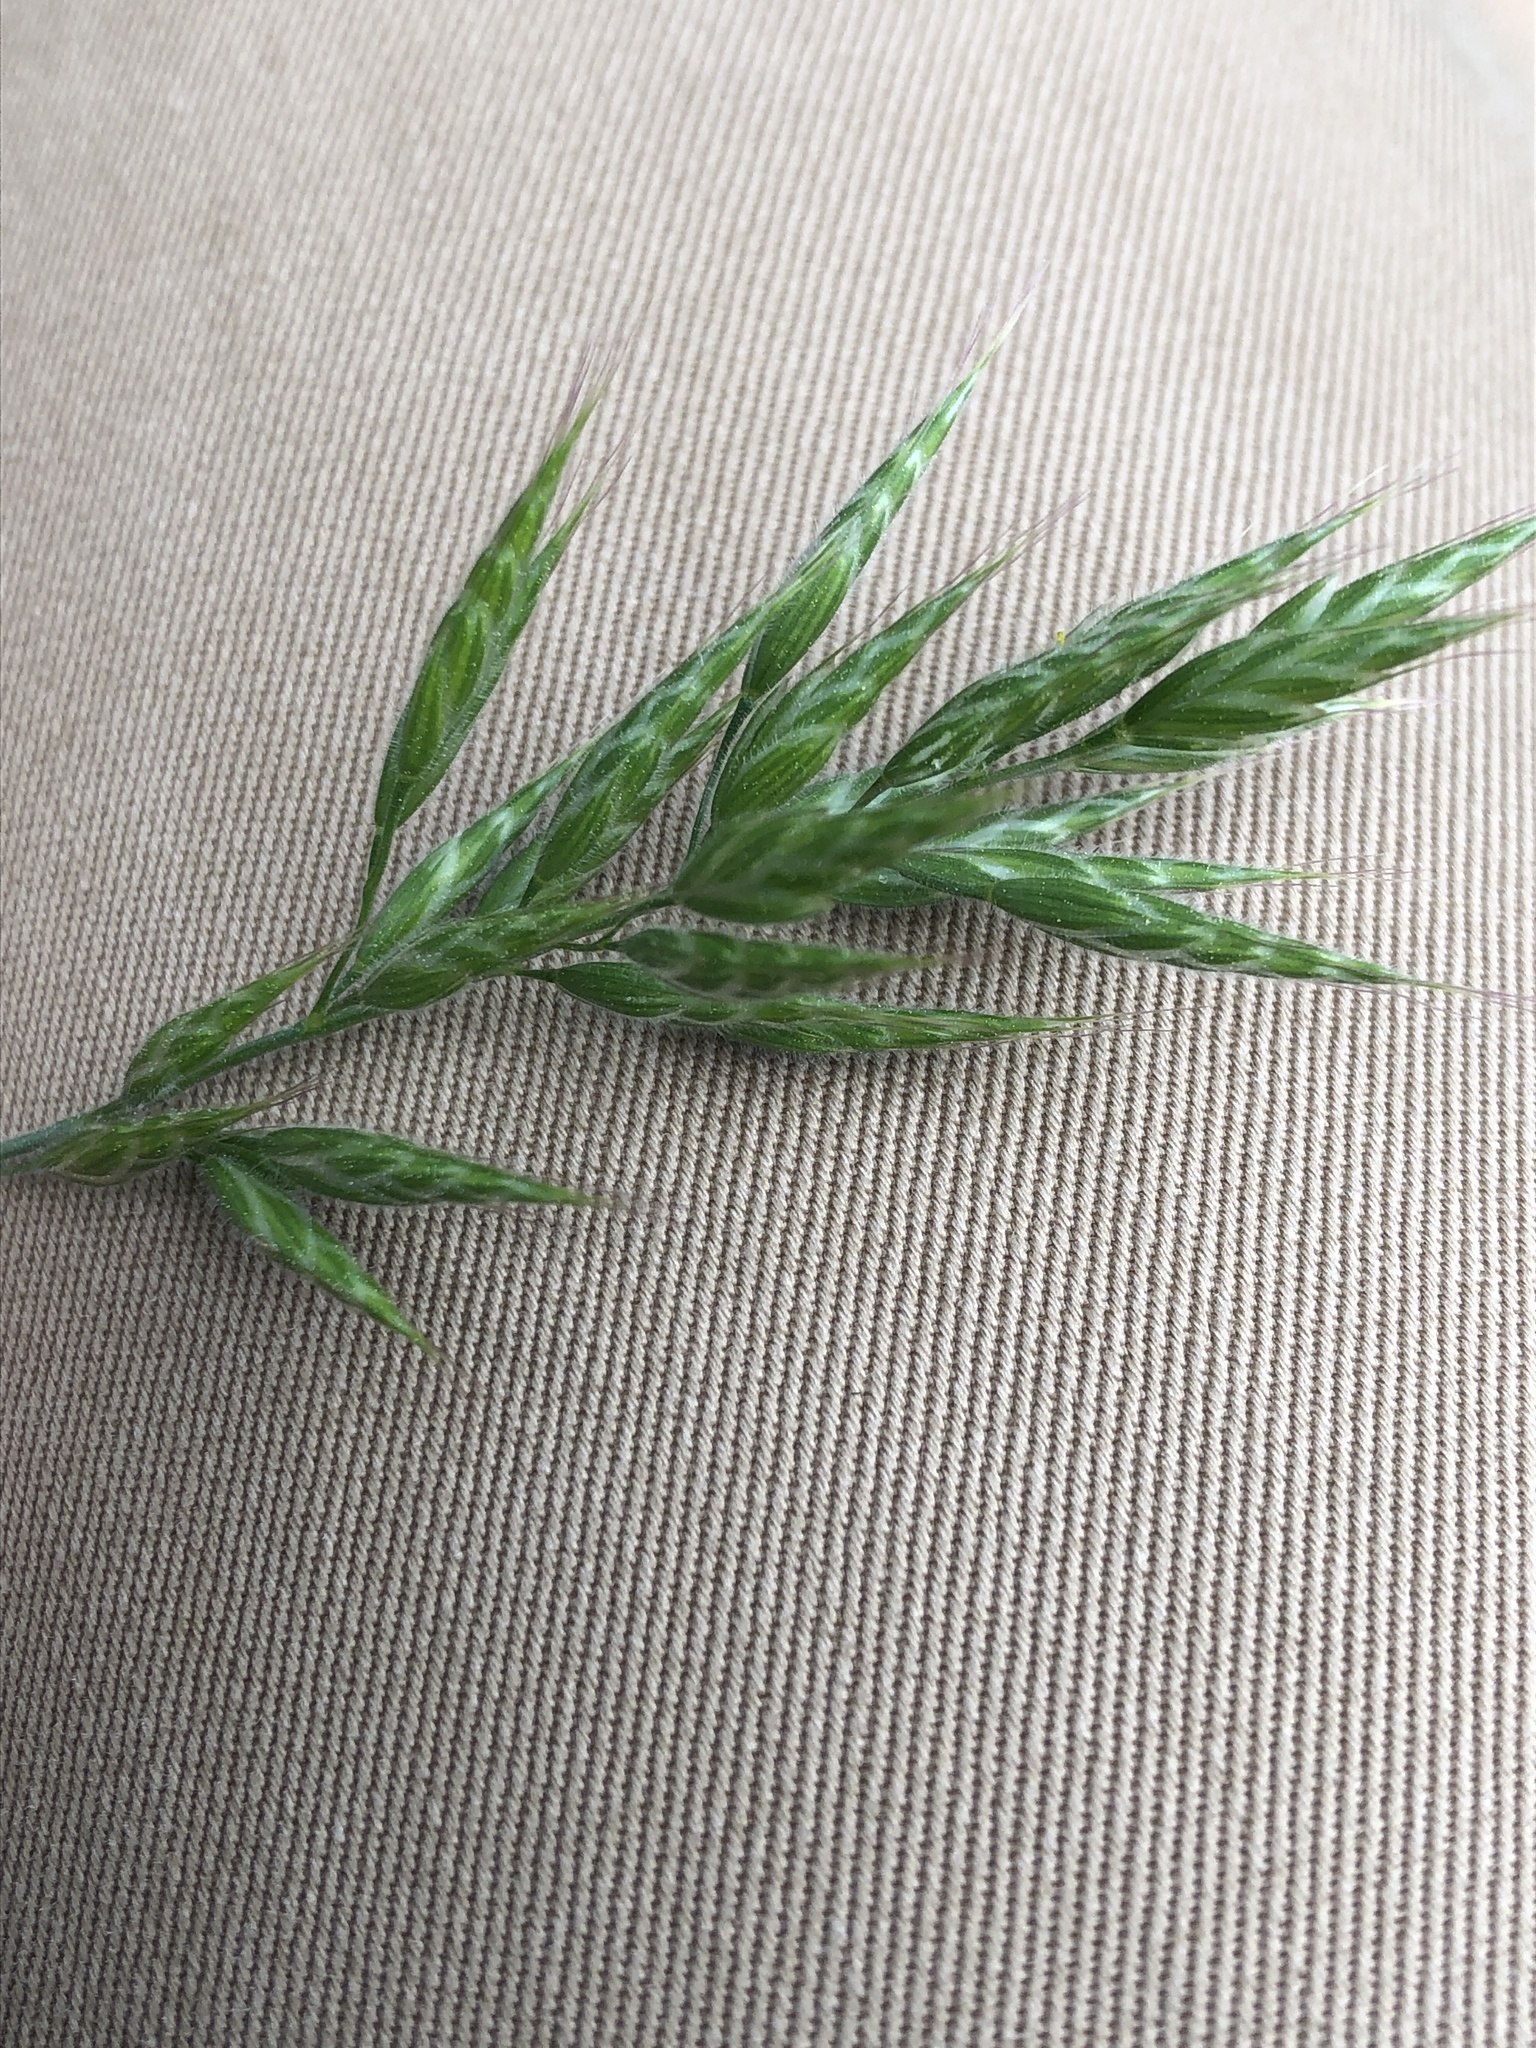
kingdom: Plantae
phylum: Tracheophyta
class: Liliopsida
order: Poales
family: Poaceae
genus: Bromus
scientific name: Bromus hordeaceus
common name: Soft brome
